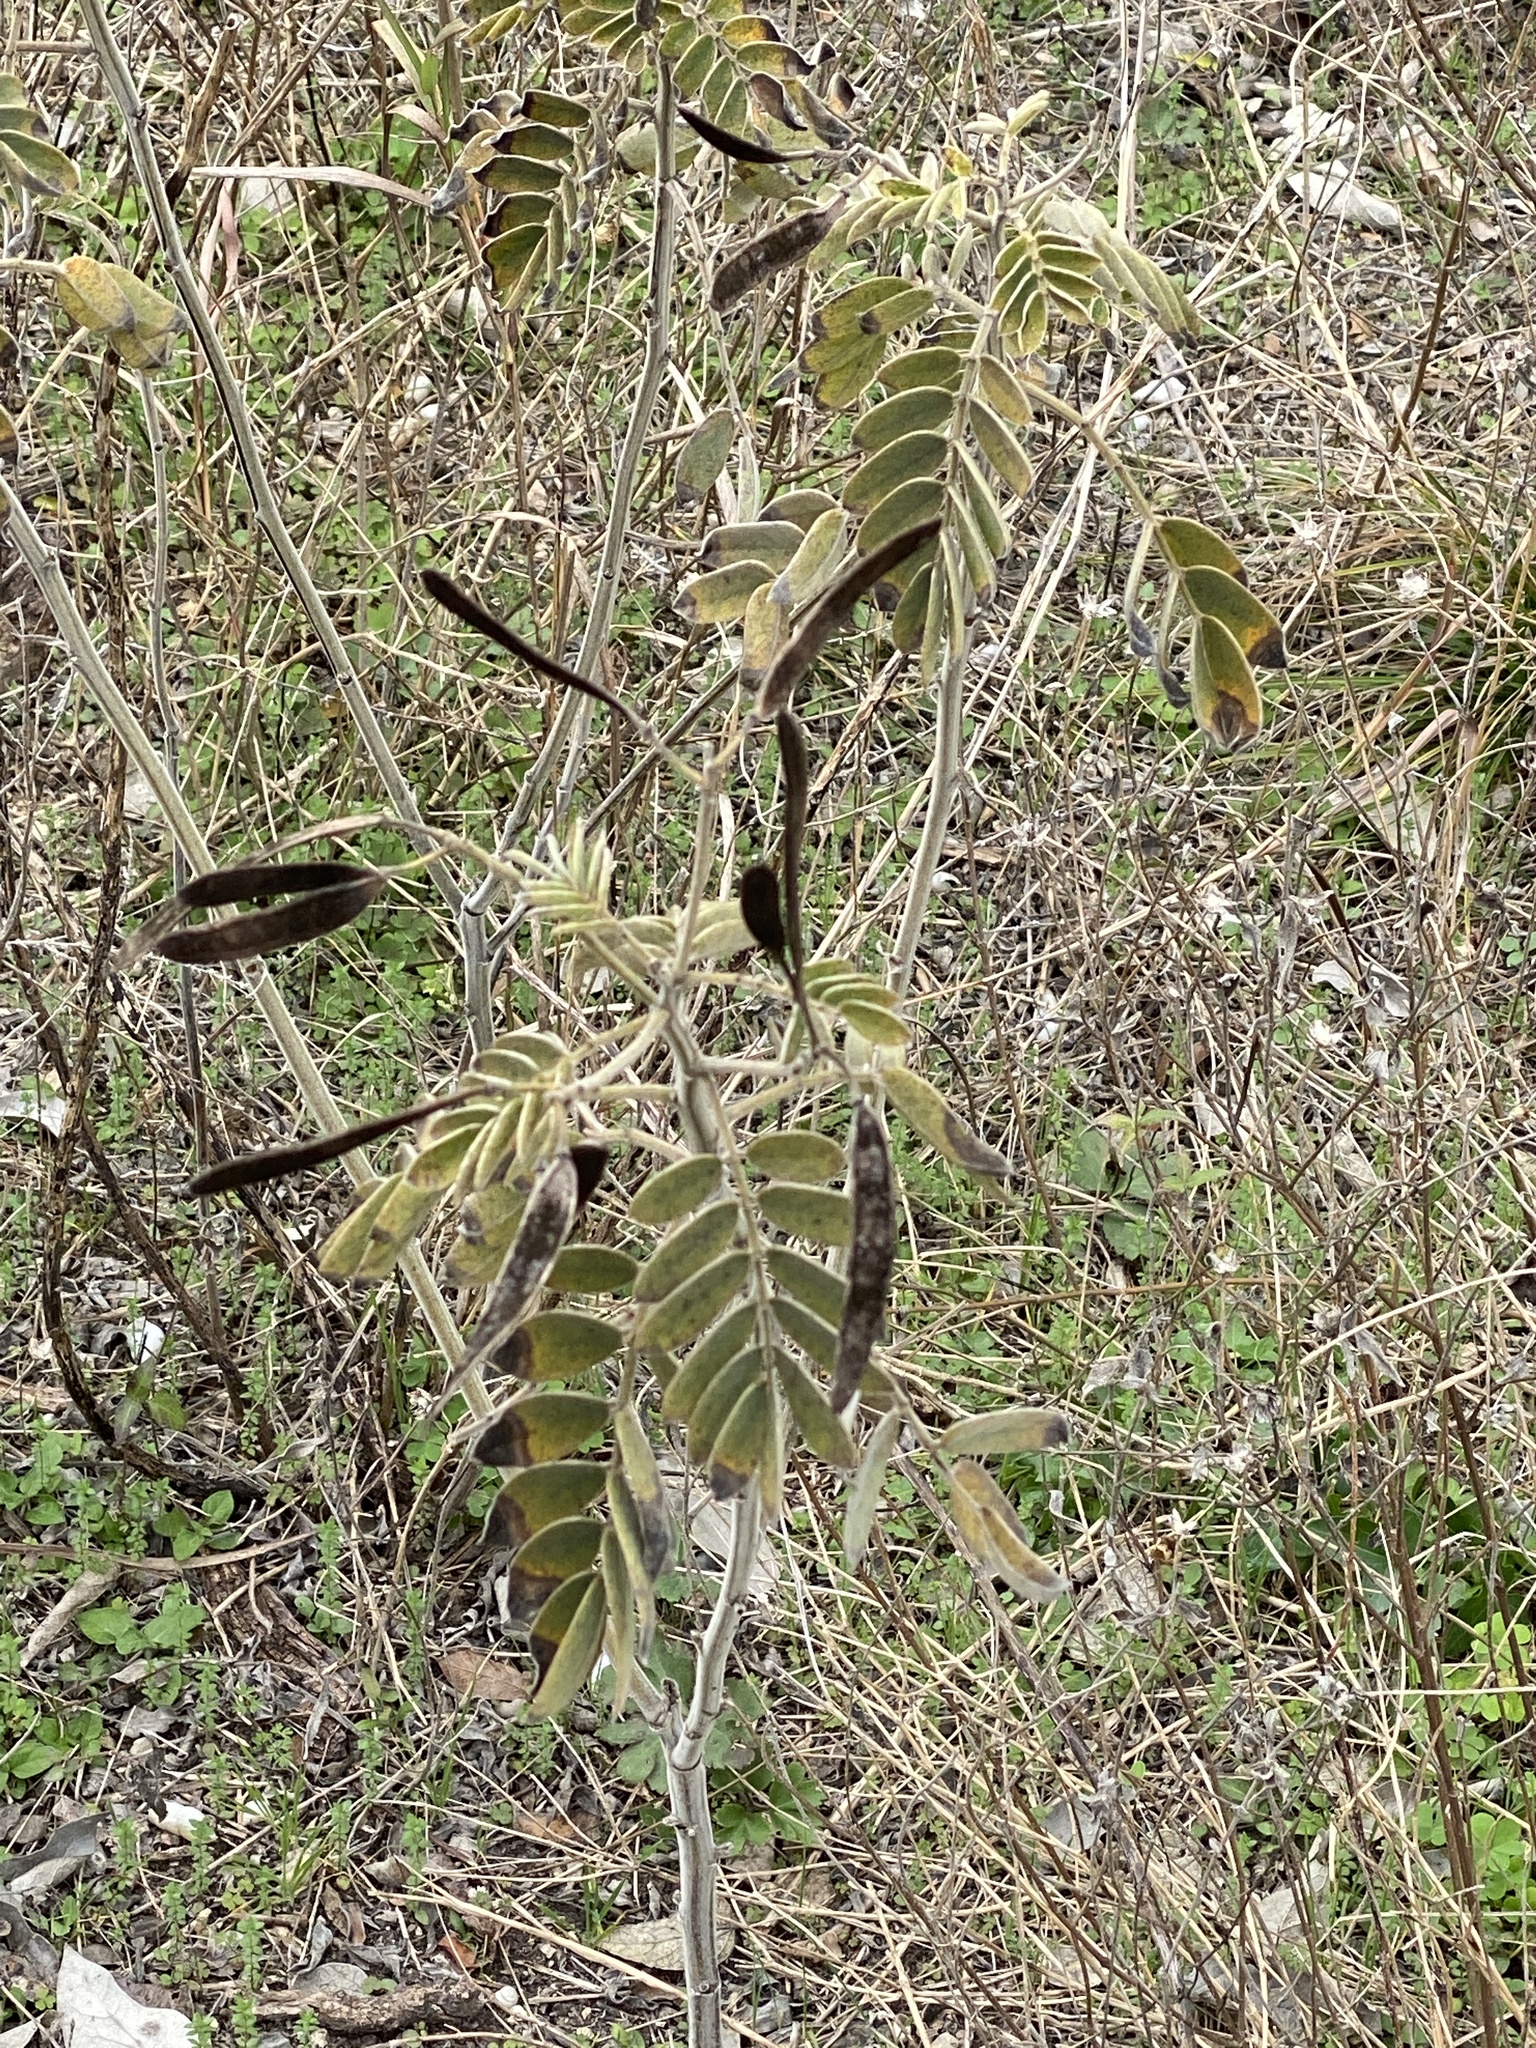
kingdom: Plantae
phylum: Tracheophyta
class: Magnoliopsida
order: Fabales
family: Fabaceae
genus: Senna
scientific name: Senna lindheimeriana
